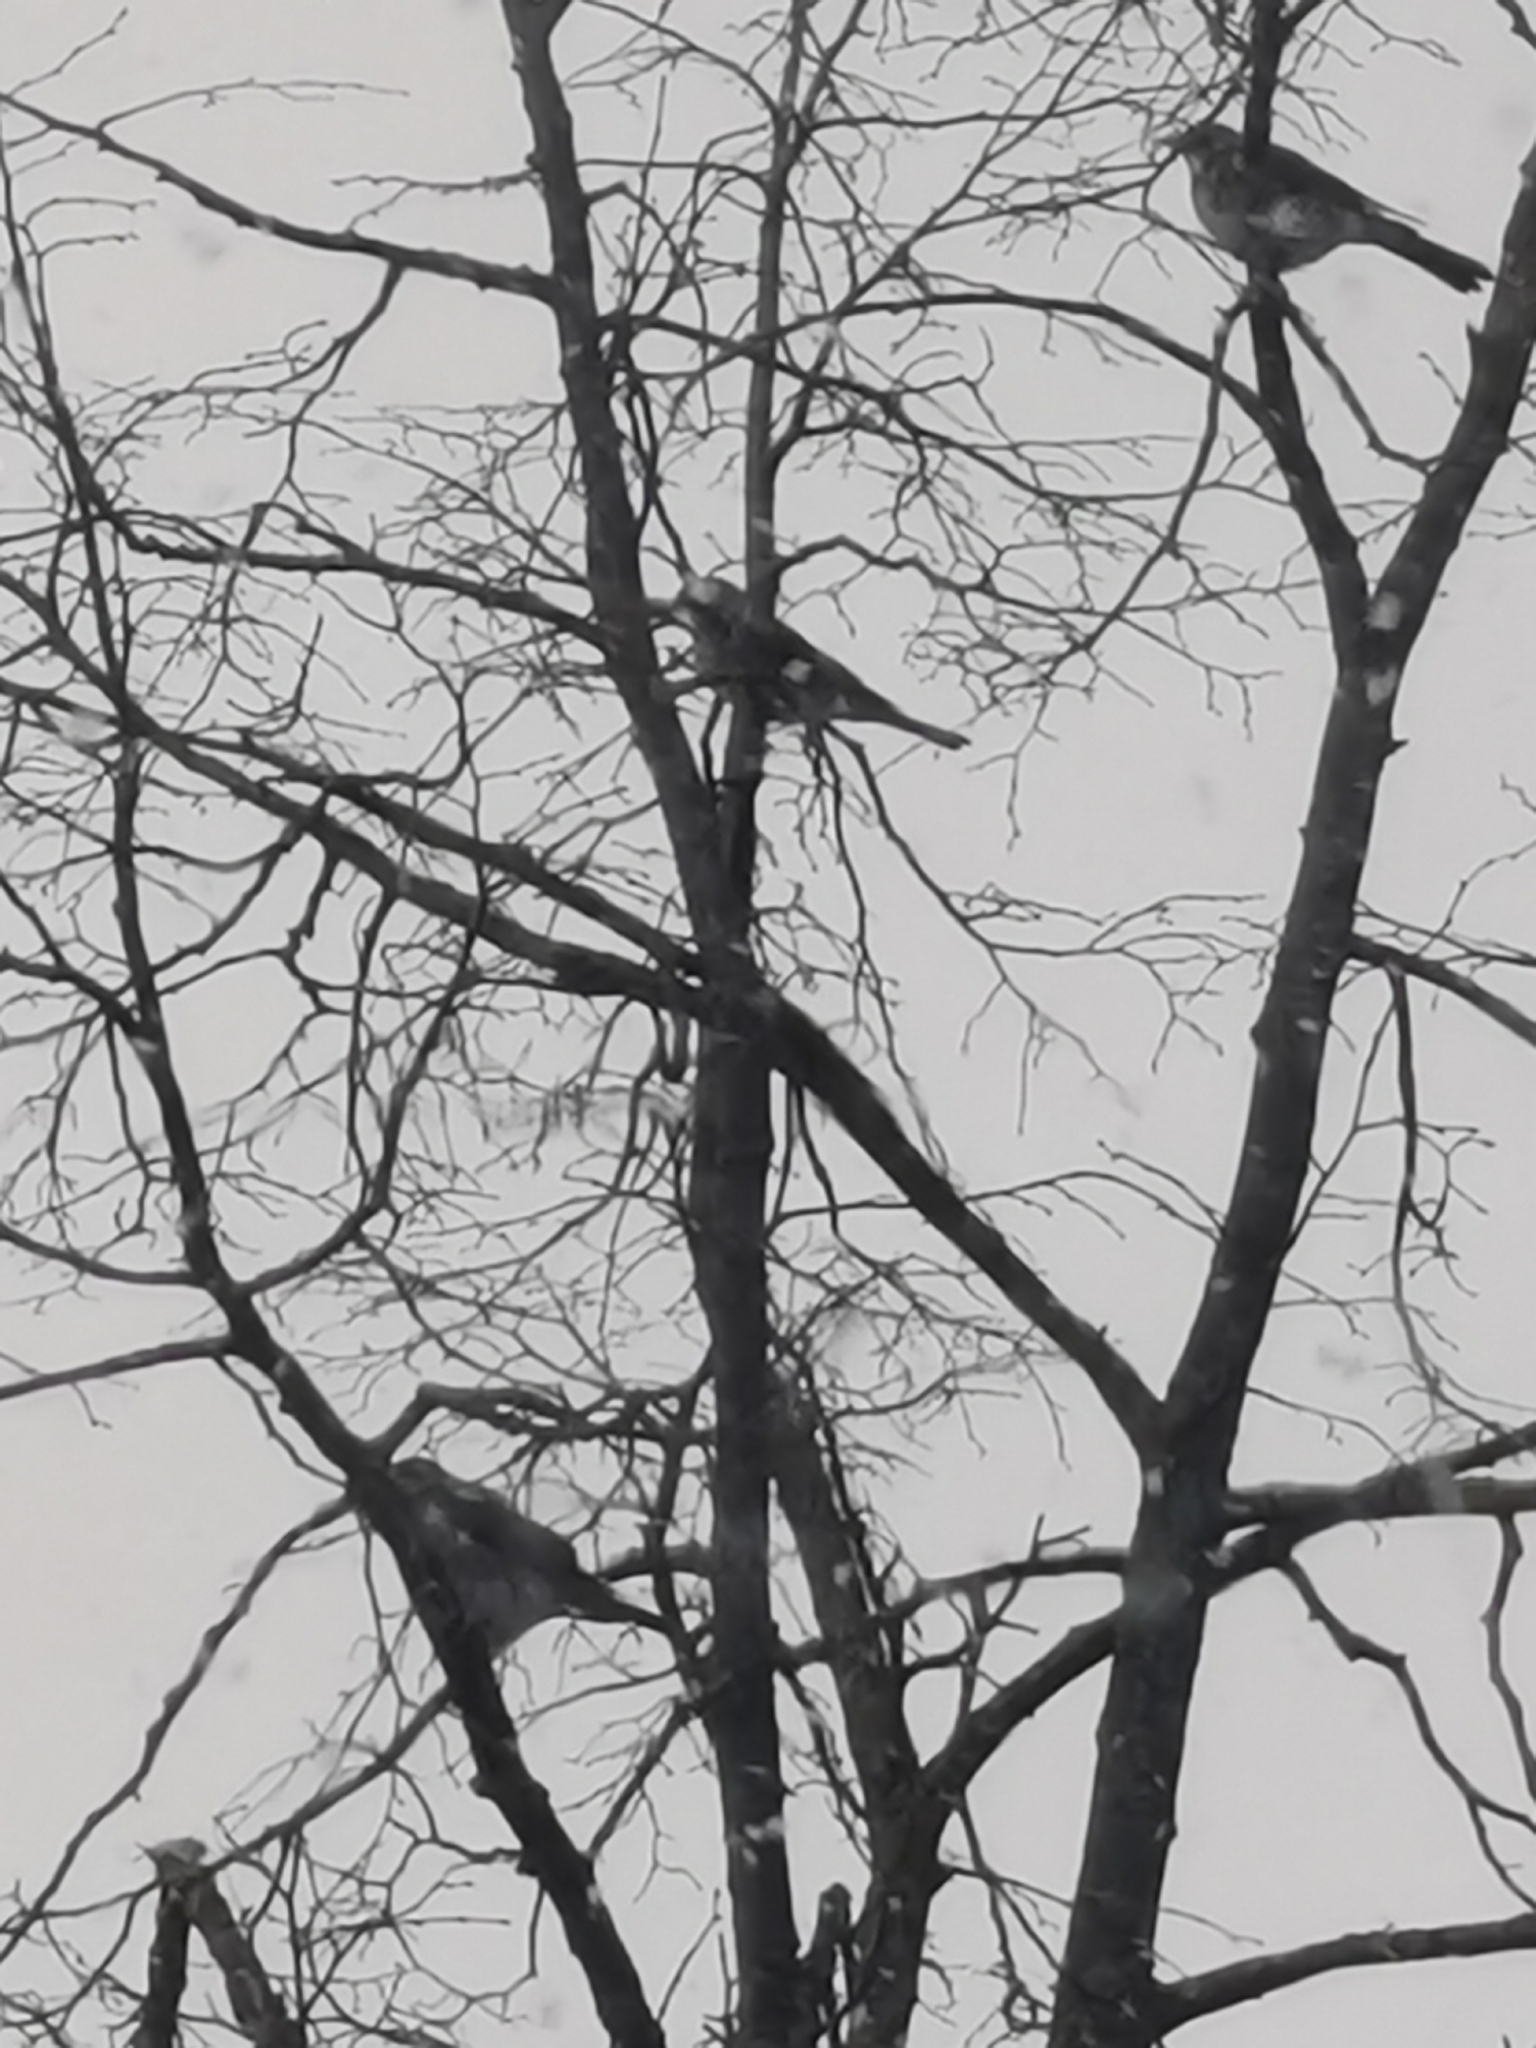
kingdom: Animalia
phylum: Chordata
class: Aves
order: Passeriformes
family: Turdidae
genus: Turdus
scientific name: Turdus pilaris
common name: Fieldfare
